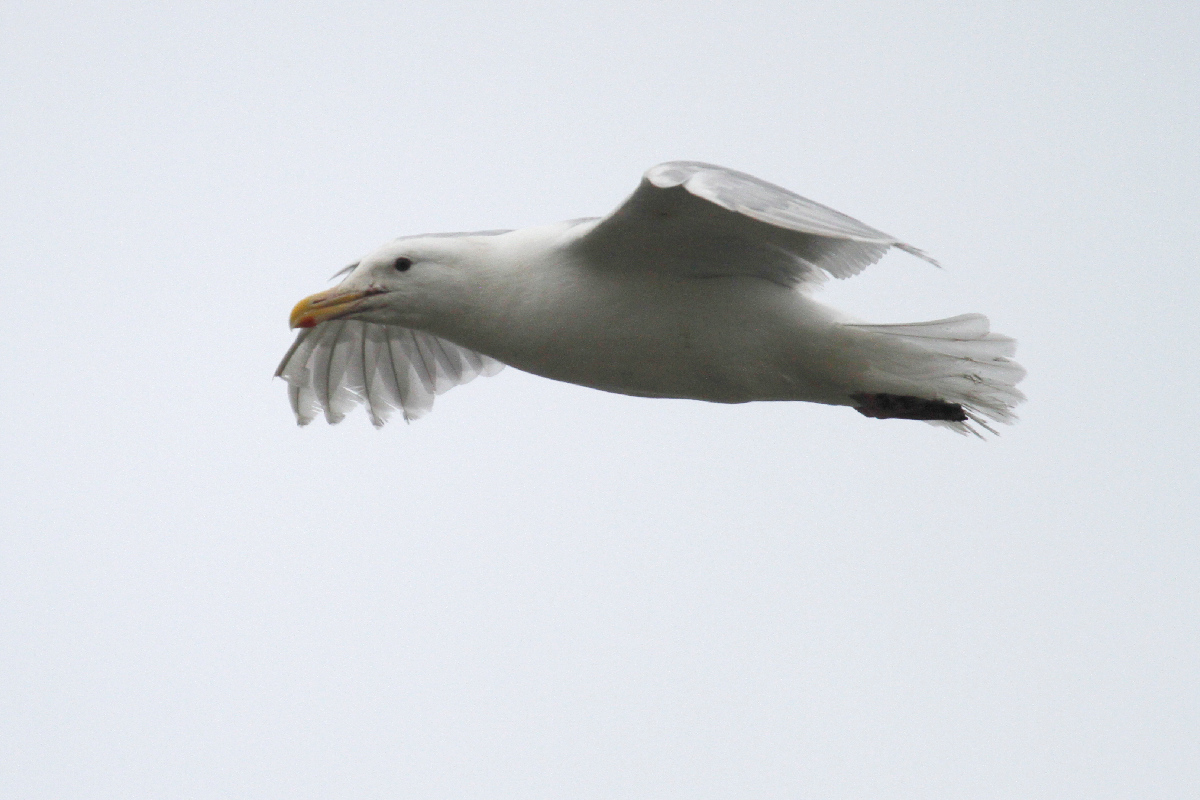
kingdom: Animalia
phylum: Chordata
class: Aves
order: Charadriiformes
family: Laridae
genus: Larus
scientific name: Larus glaucescens
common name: Glaucous-winged gull
